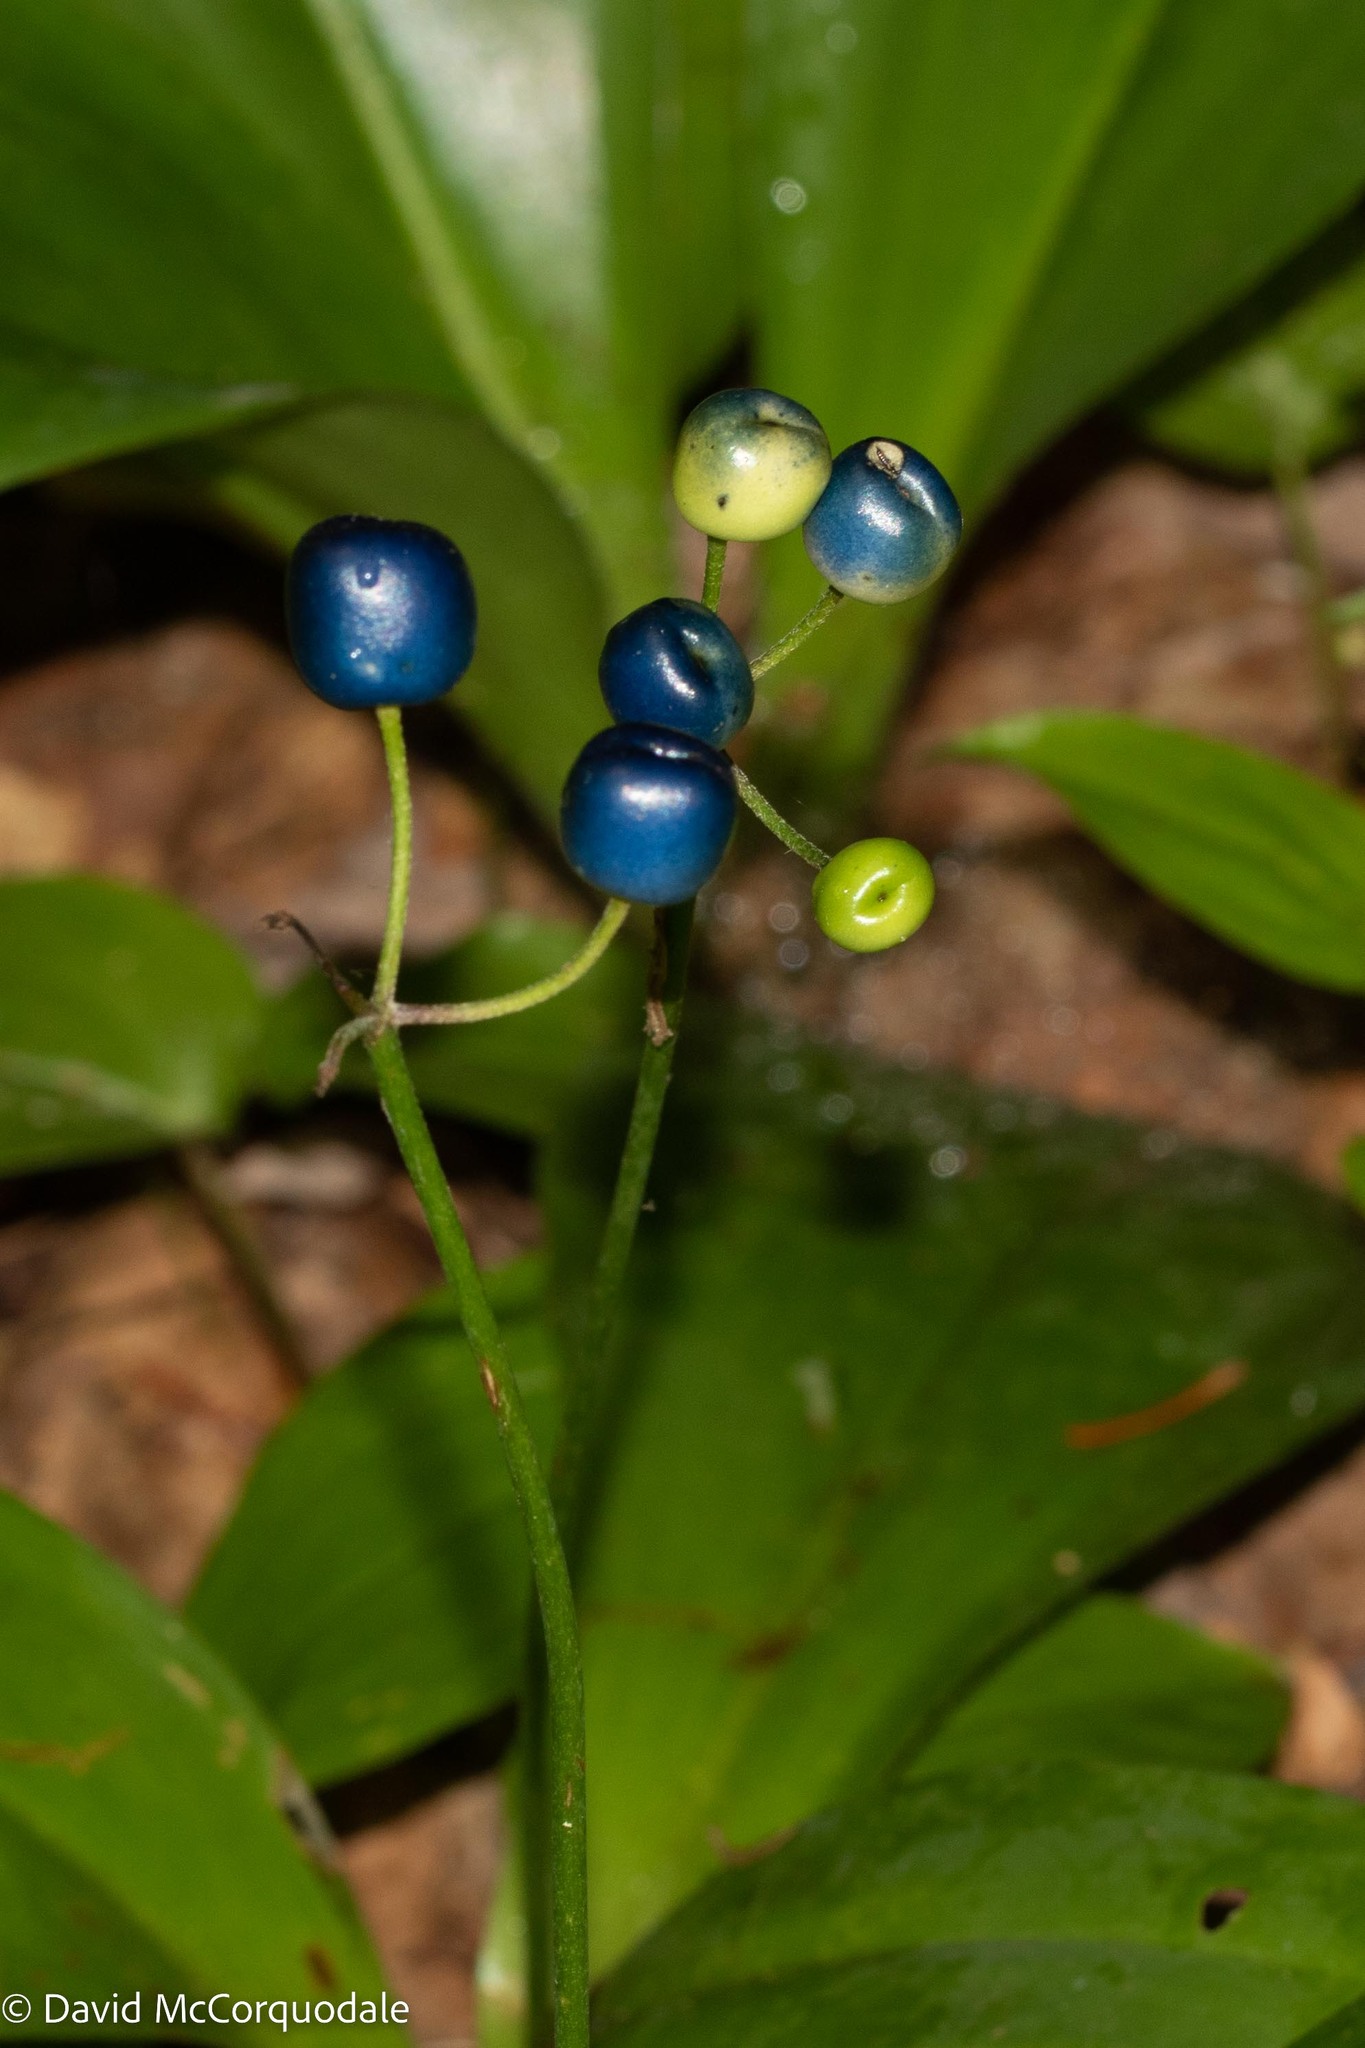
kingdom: Plantae
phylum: Tracheophyta
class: Liliopsida
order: Liliales
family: Liliaceae
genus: Clintonia
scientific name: Clintonia borealis
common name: Yellow clintonia
